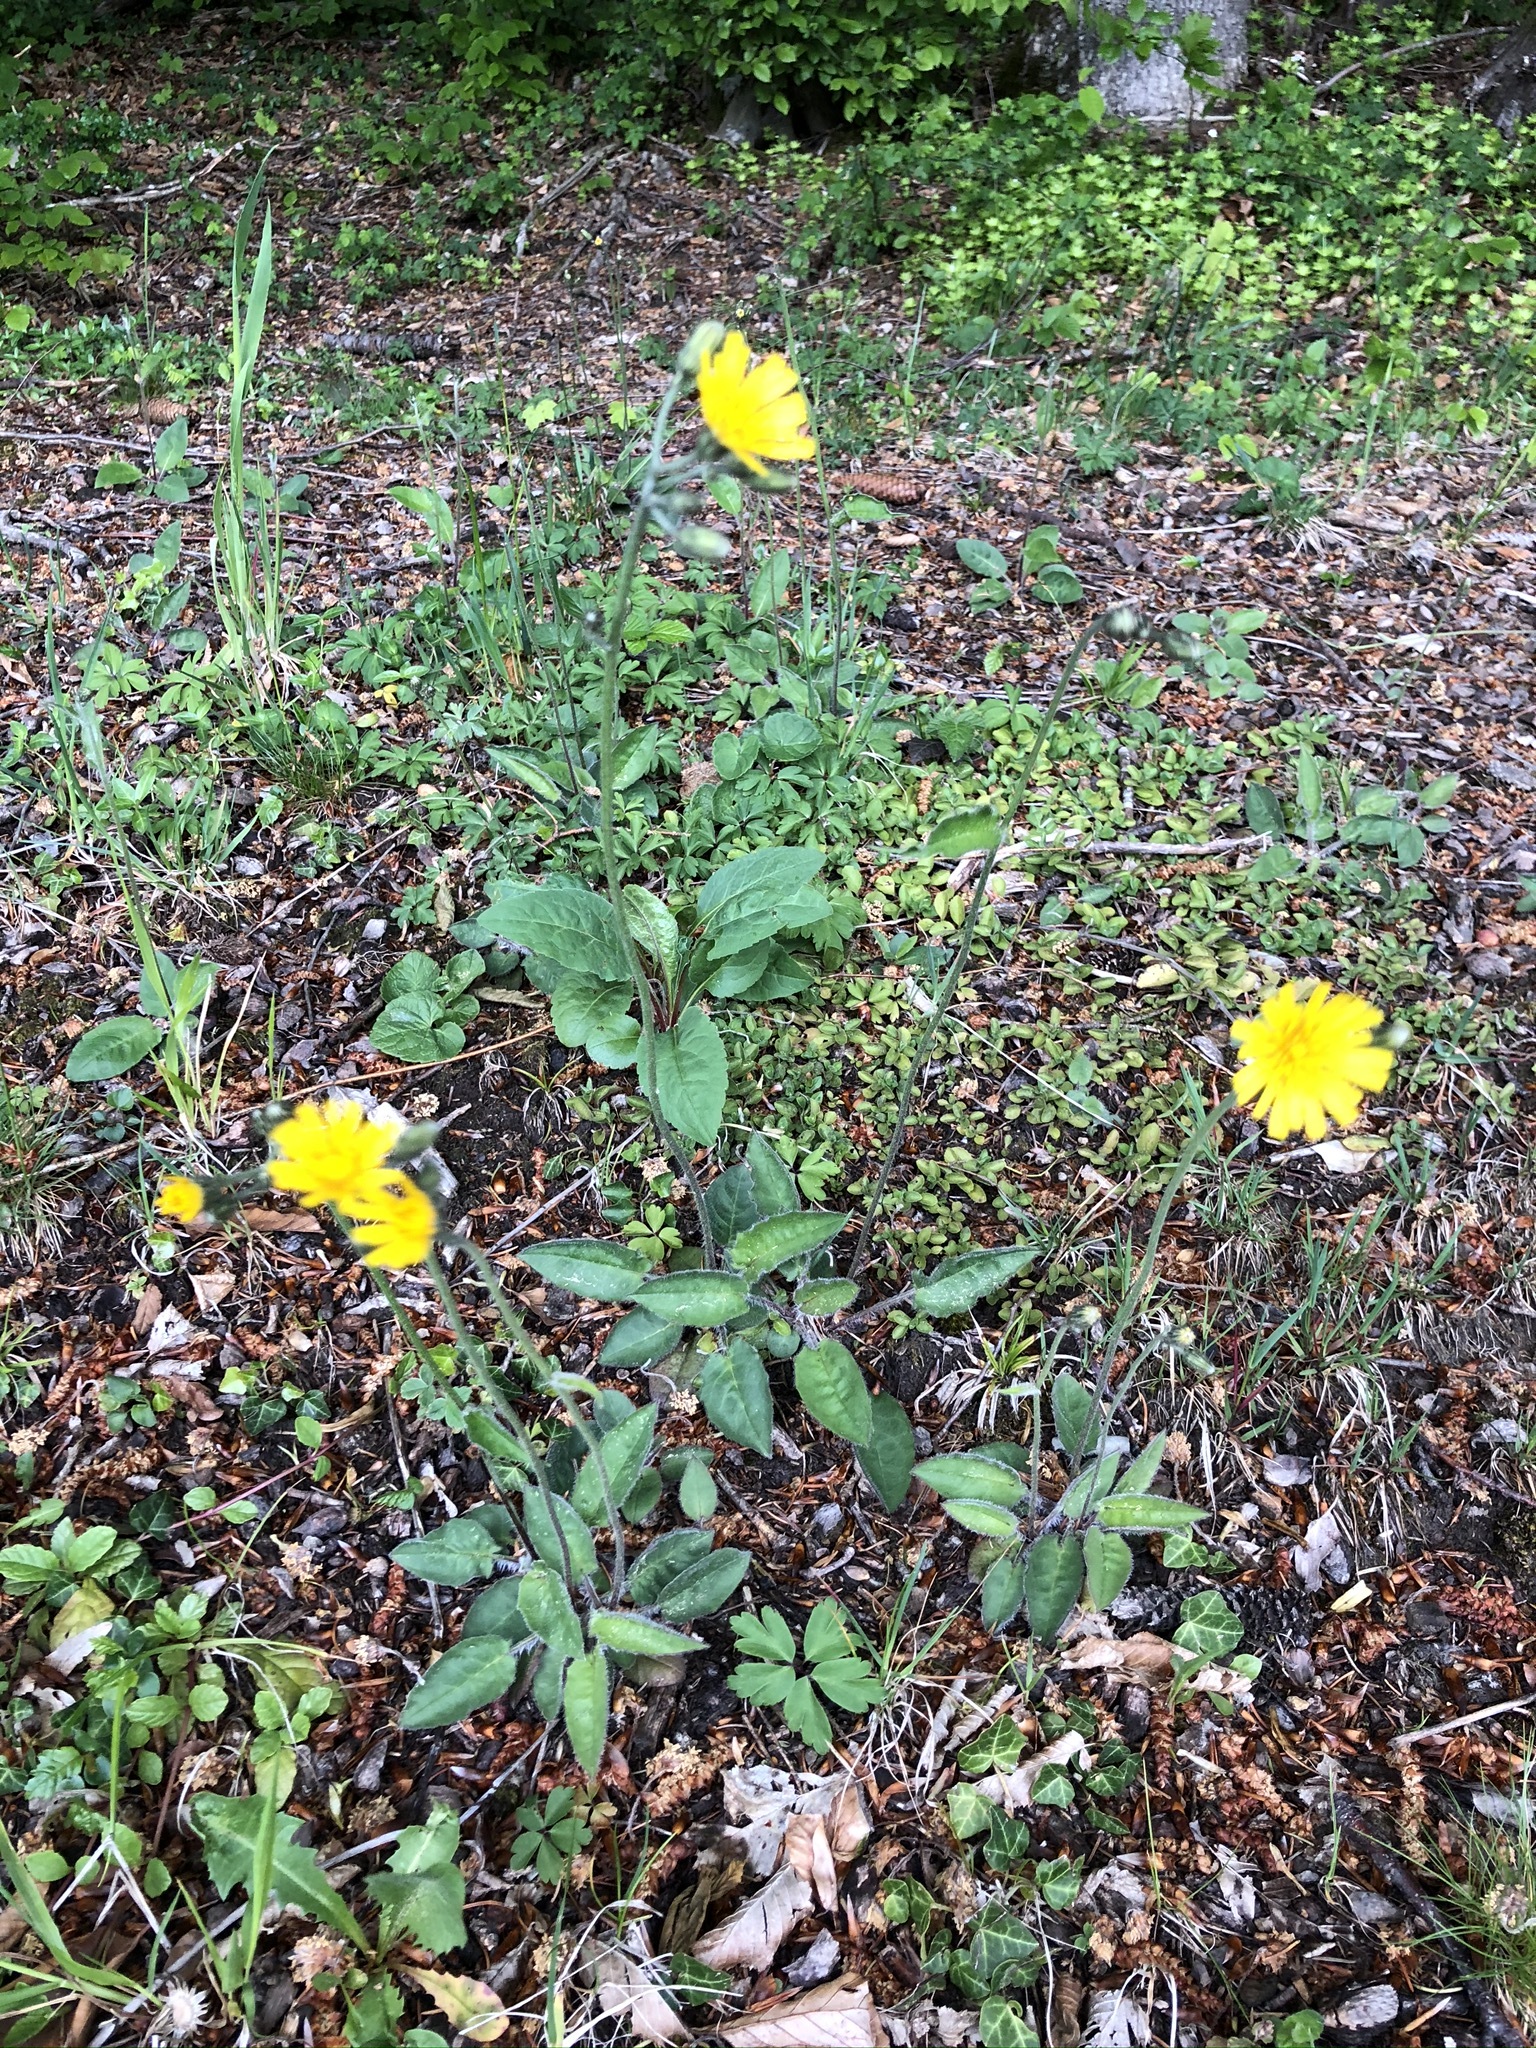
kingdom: Plantae
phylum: Tracheophyta
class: Magnoliopsida
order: Asterales
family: Asteraceae
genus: Hieracium
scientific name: Hieracium murorum
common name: Wall hawkweed
